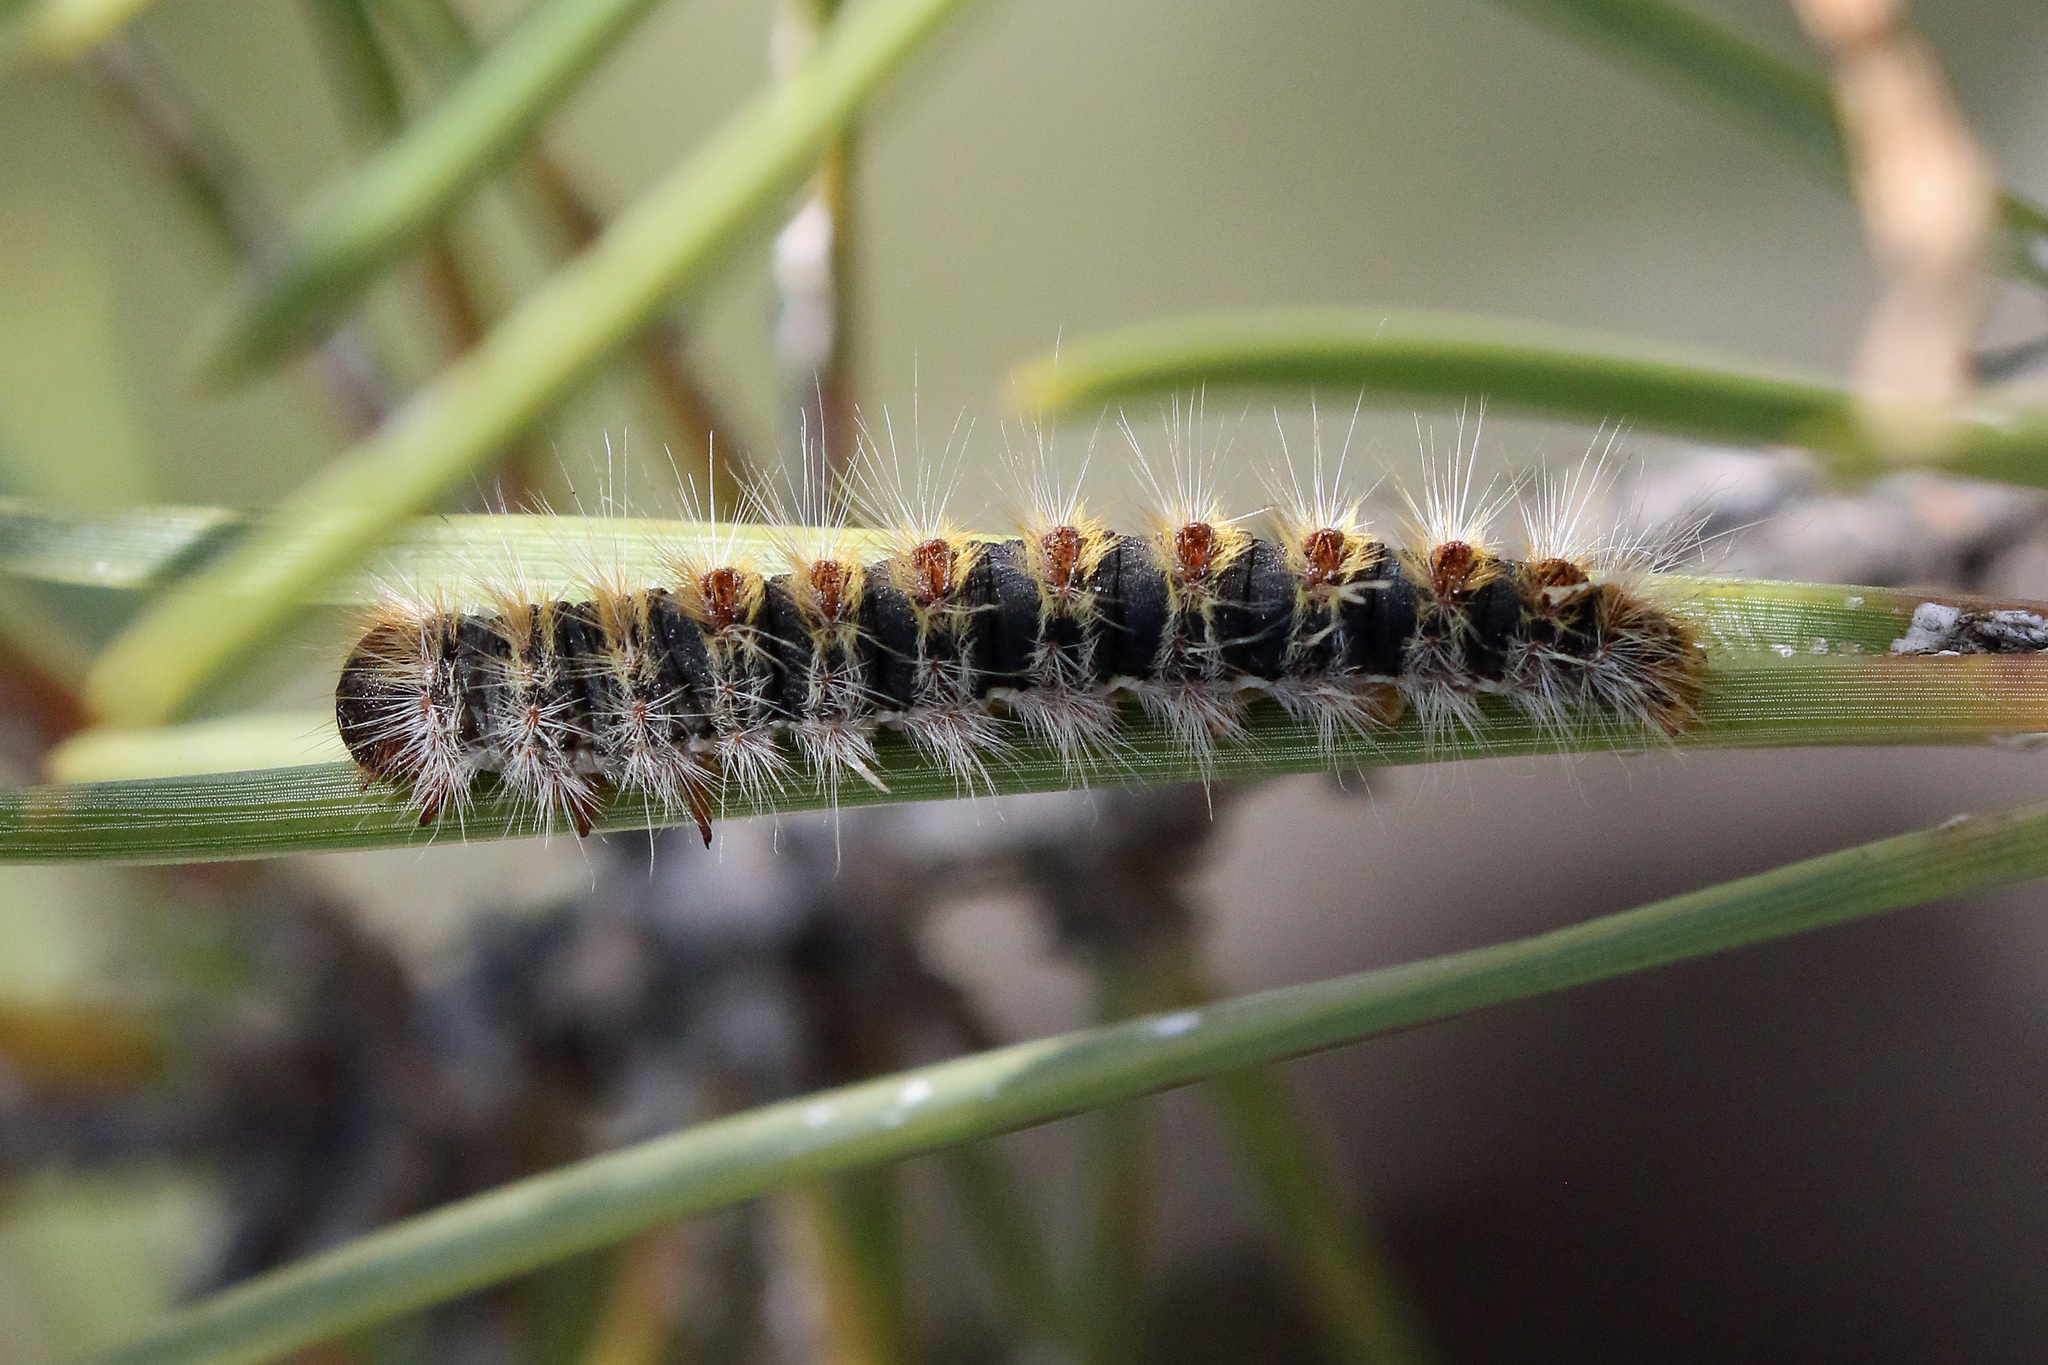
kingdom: Animalia
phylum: Arthropoda
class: Insecta
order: Lepidoptera
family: Notodontidae
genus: Thaumetopoea
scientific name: Thaumetopoea pityocampa
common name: Pine processionary
